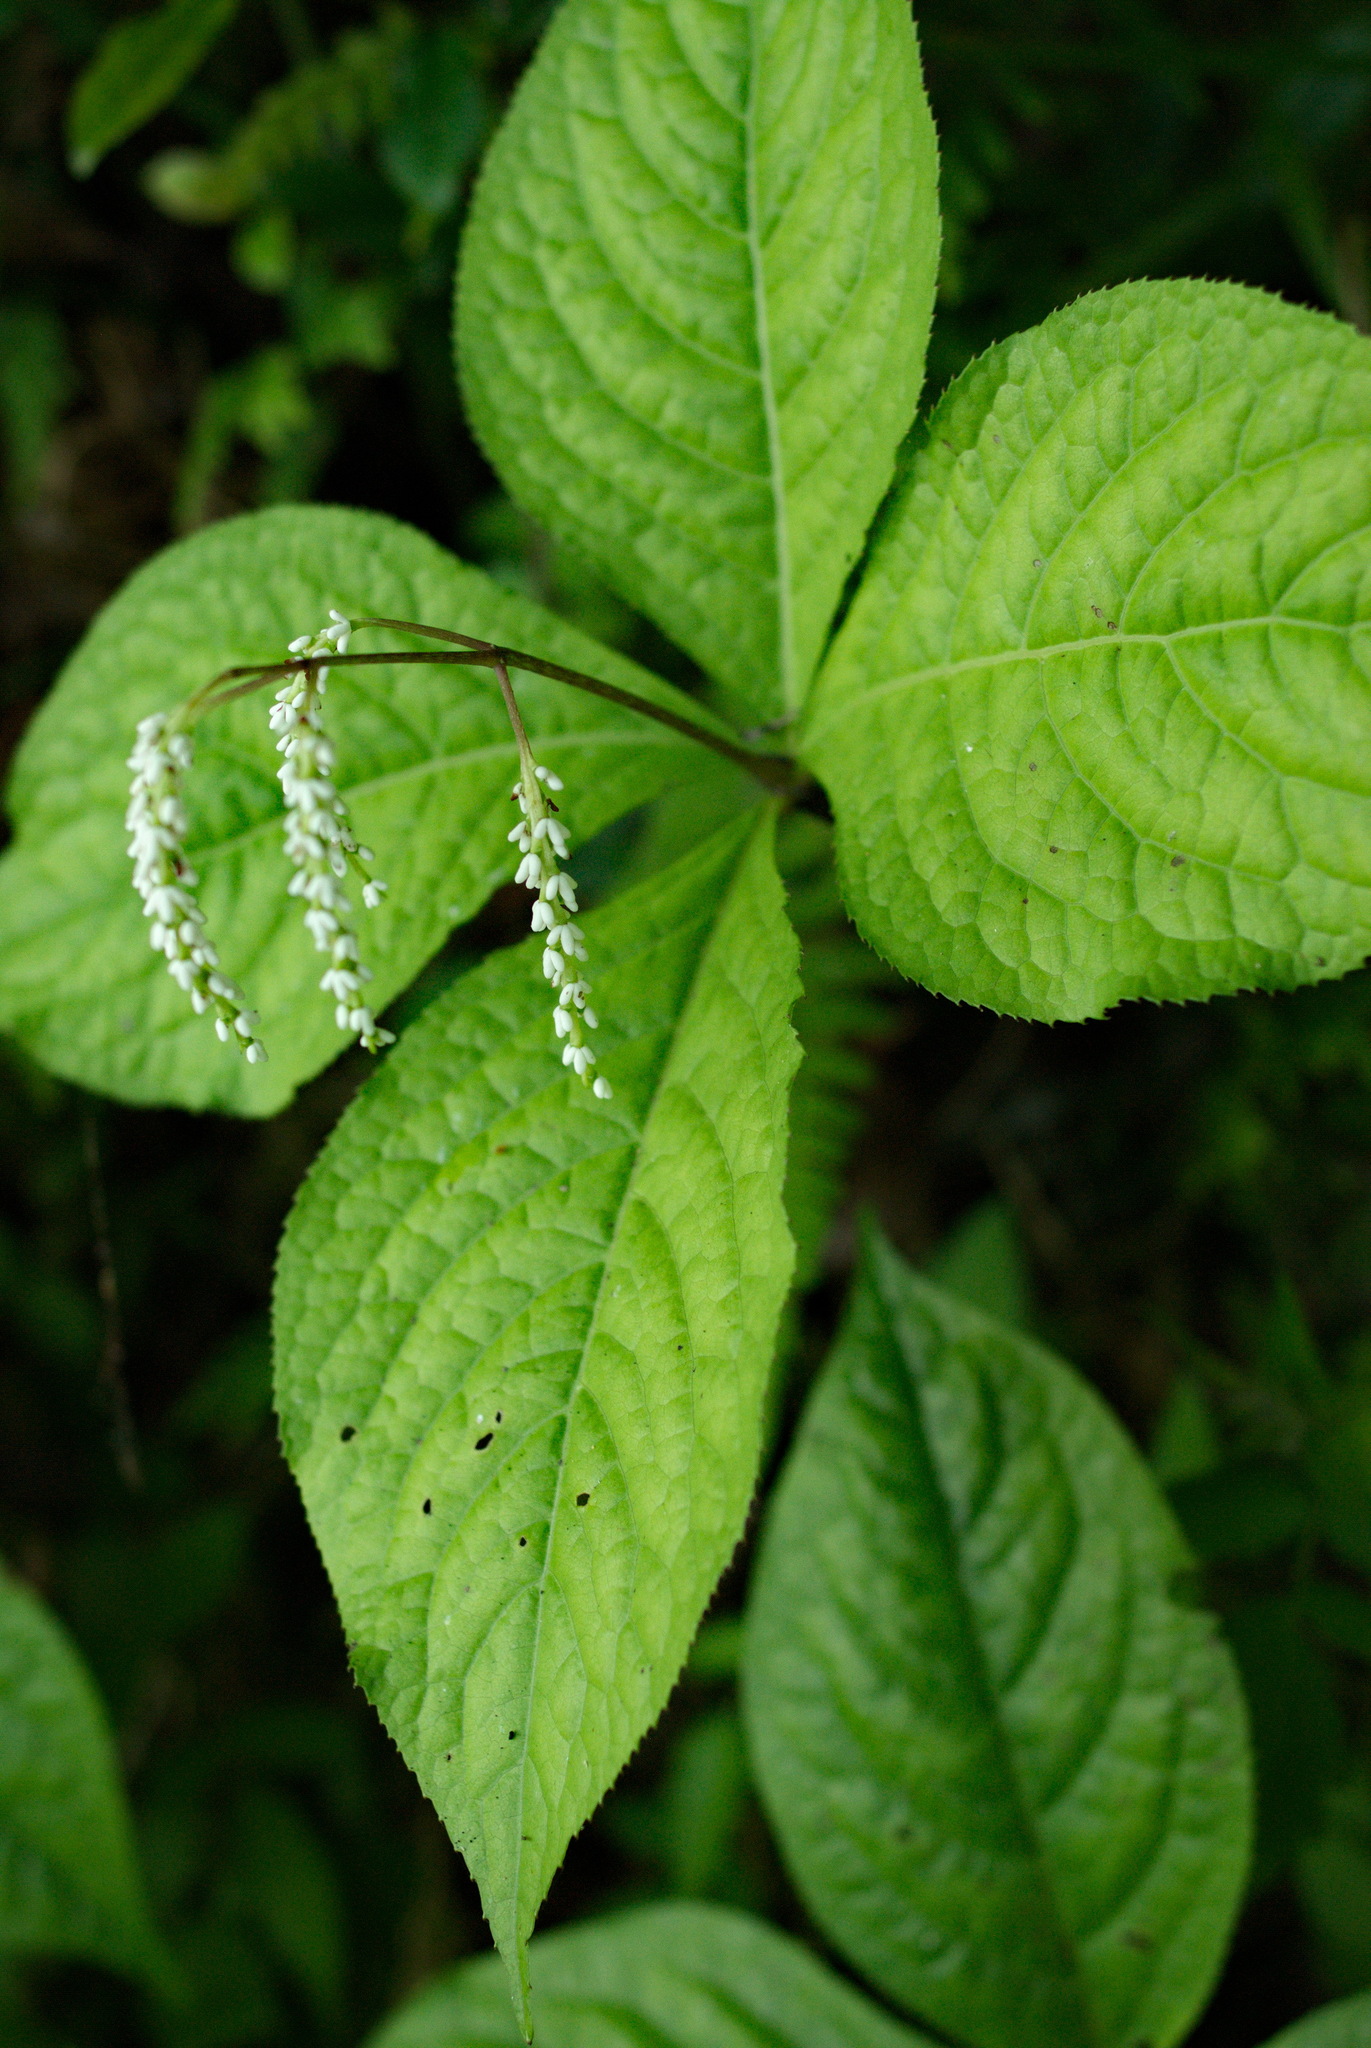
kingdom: Plantae
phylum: Tracheophyta
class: Magnoliopsida
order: Chloranthales
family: Chloranthaceae
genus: Chloranthus
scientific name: Chloranthus oldhamii
